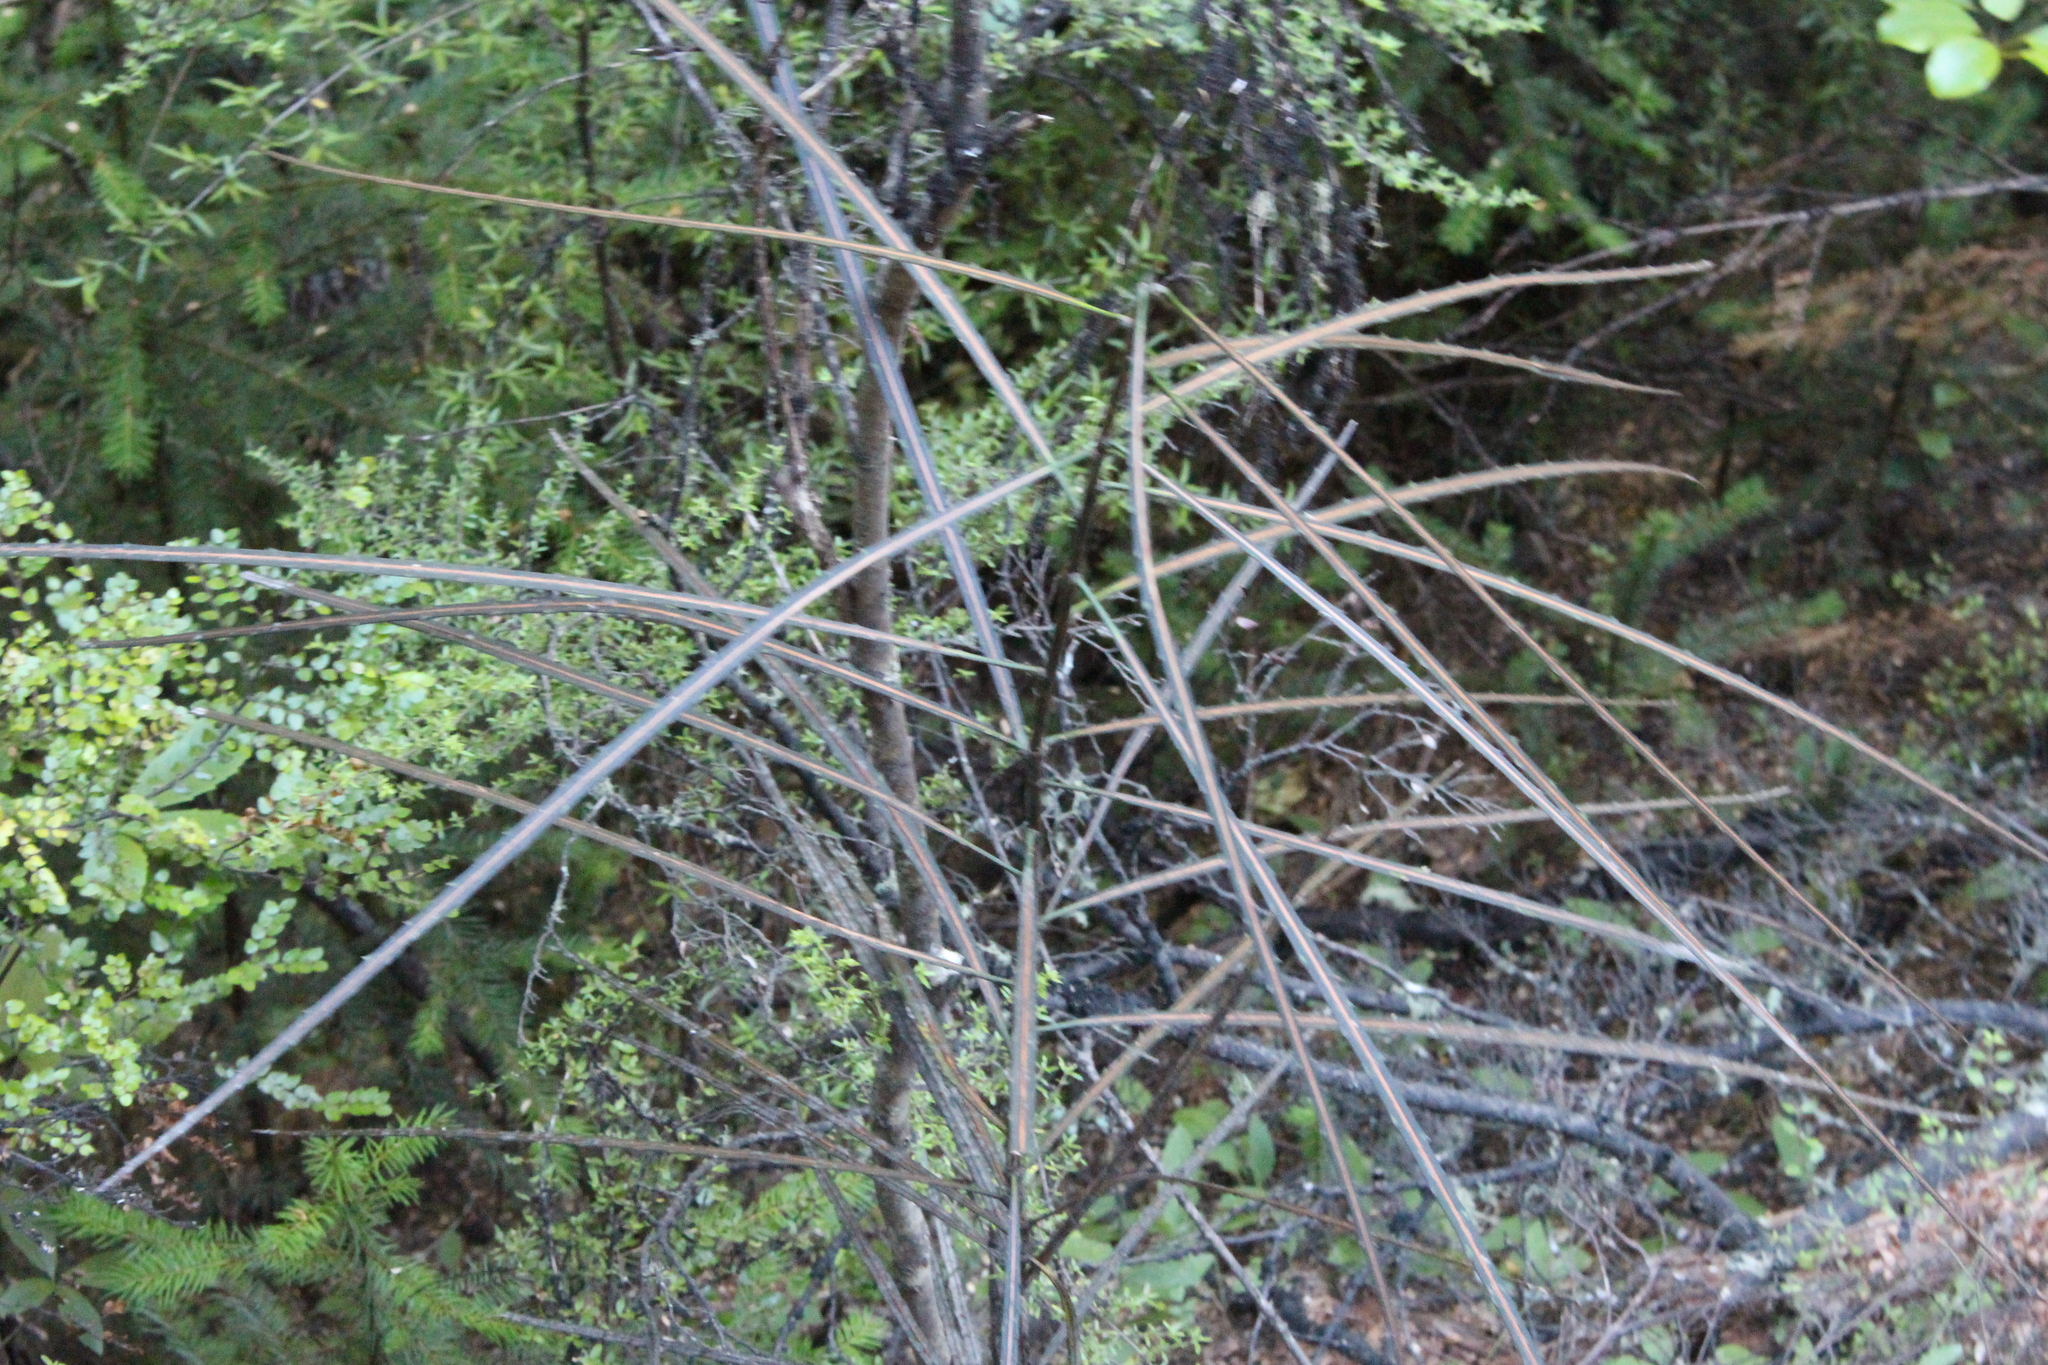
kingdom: Plantae
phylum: Tracheophyta
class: Magnoliopsida
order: Apiales
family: Araliaceae
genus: Pseudopanax
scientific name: Pseudopanax crassifolius
